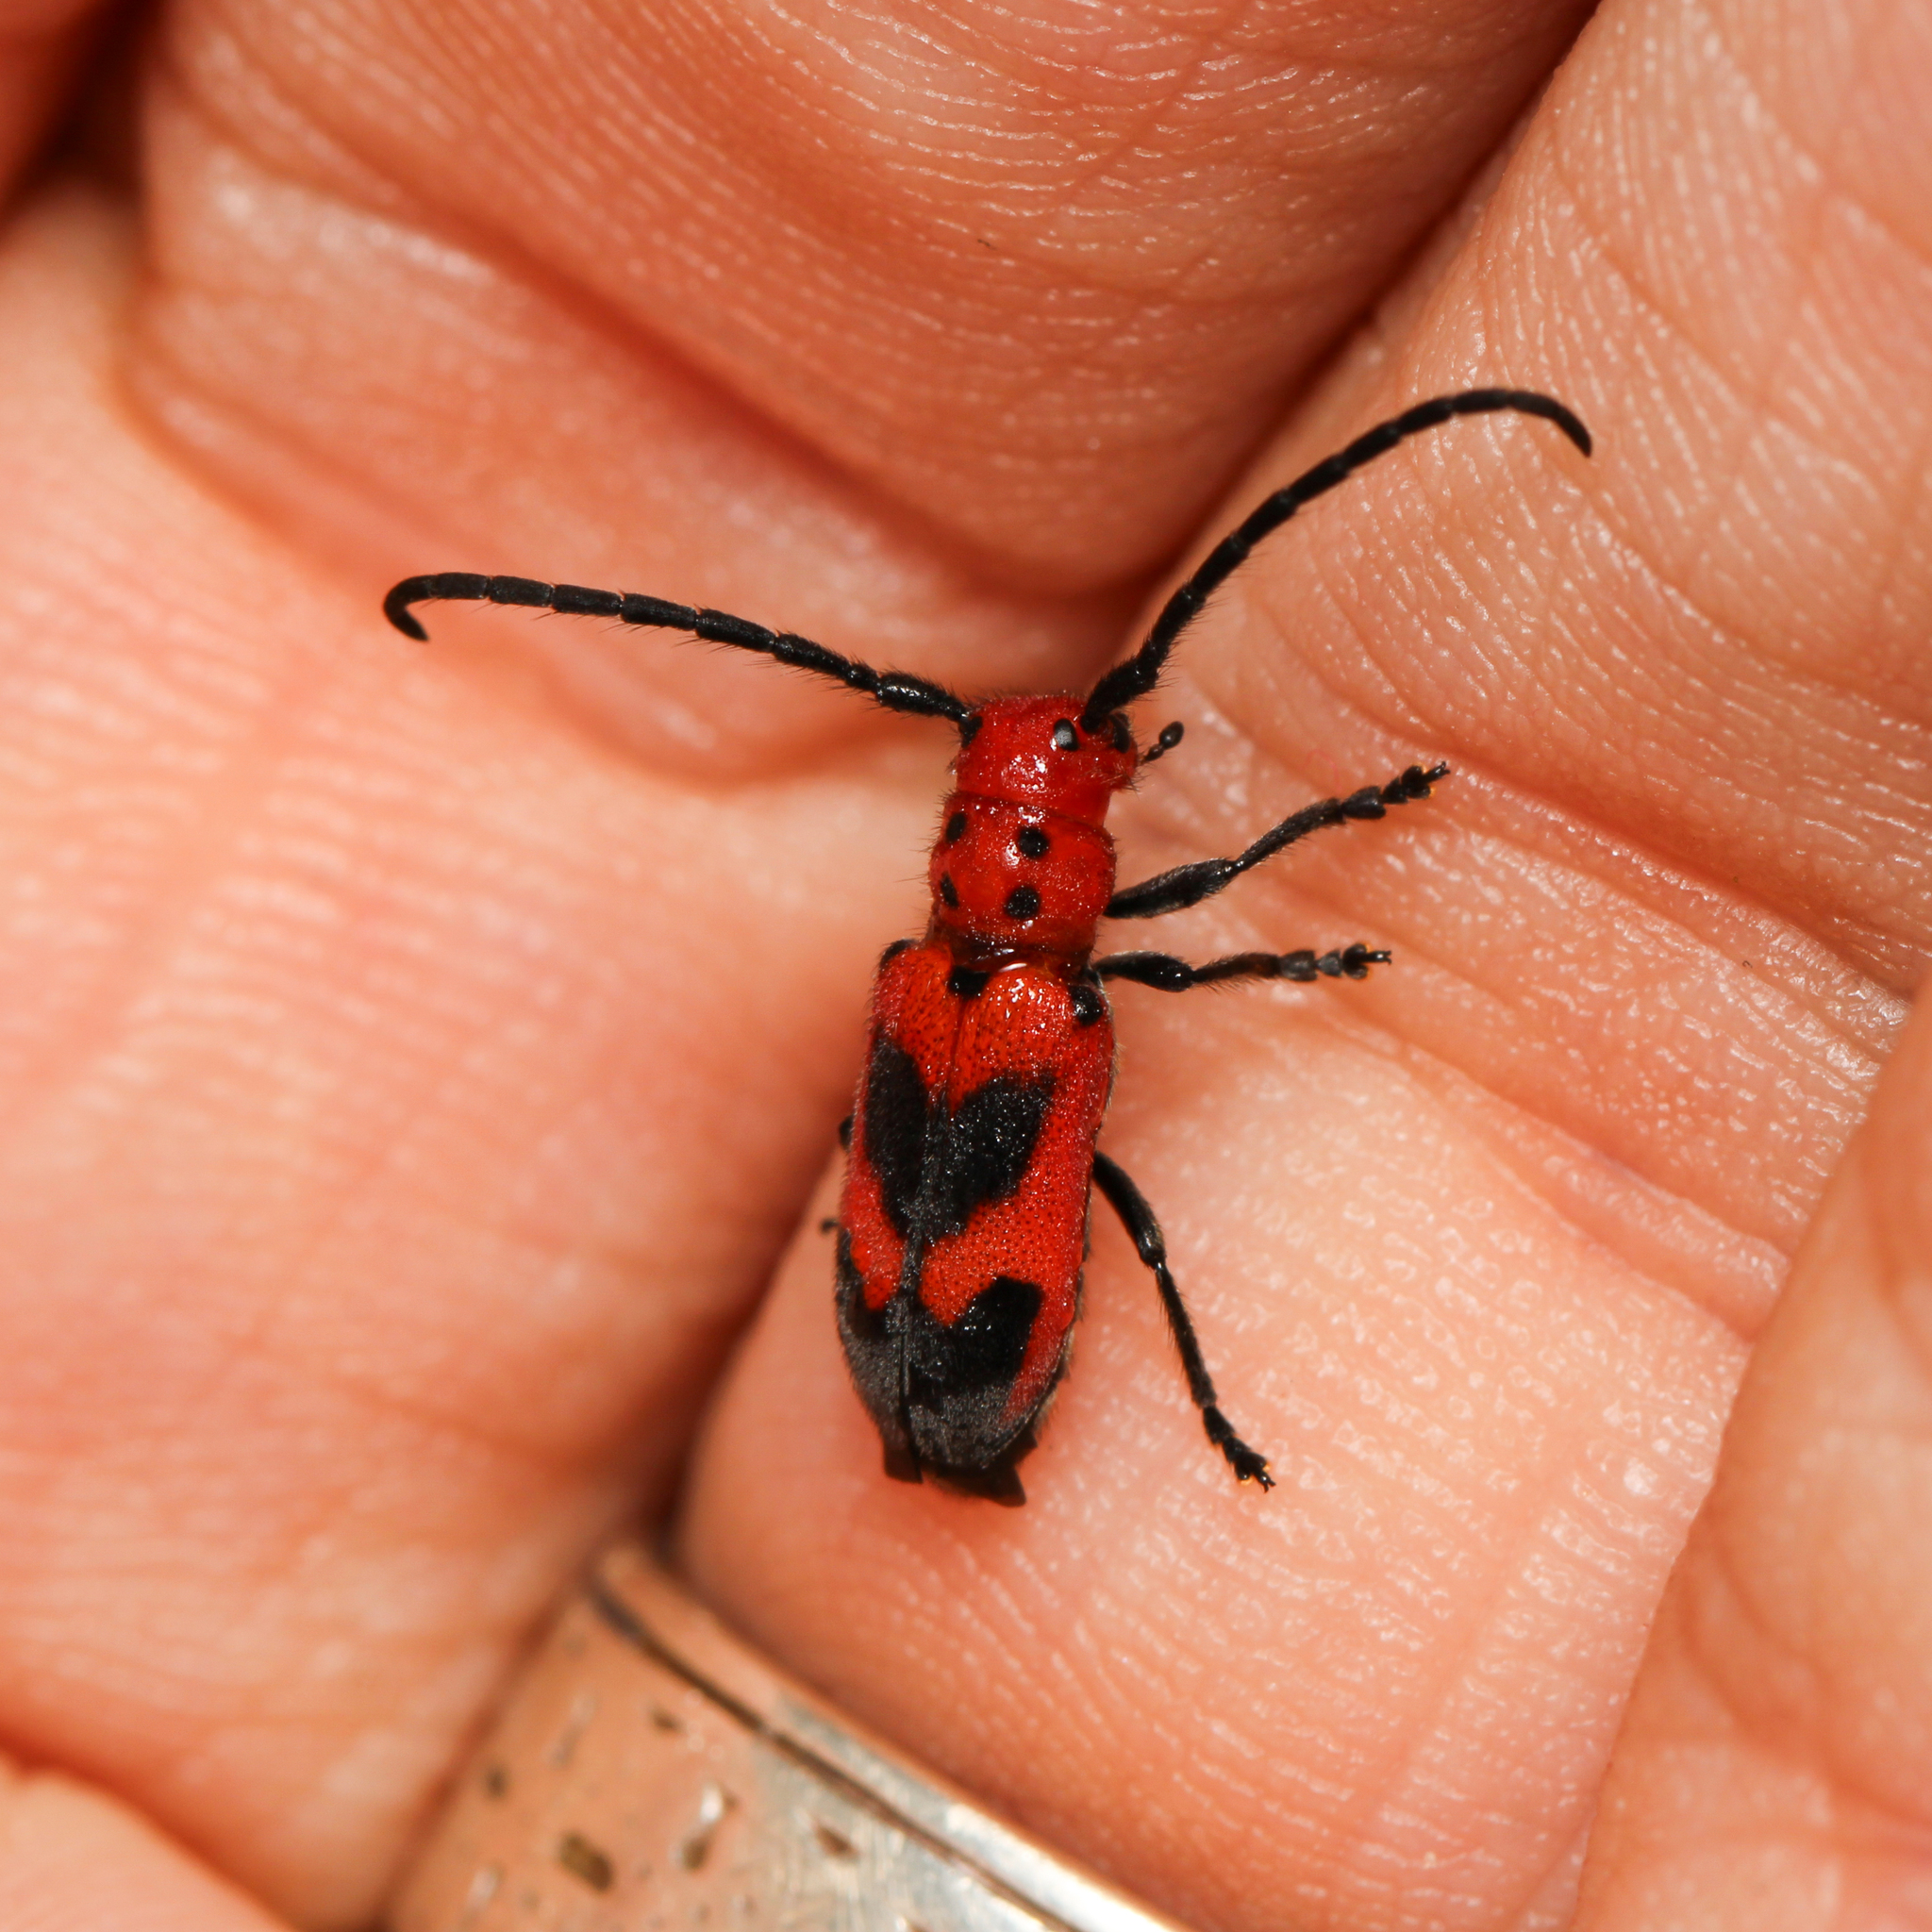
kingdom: Animalia
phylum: Arthropoda
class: Insecta
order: Coleoptera
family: Cerambycidae
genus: Tetraopes
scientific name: Tetraopes melanurus
